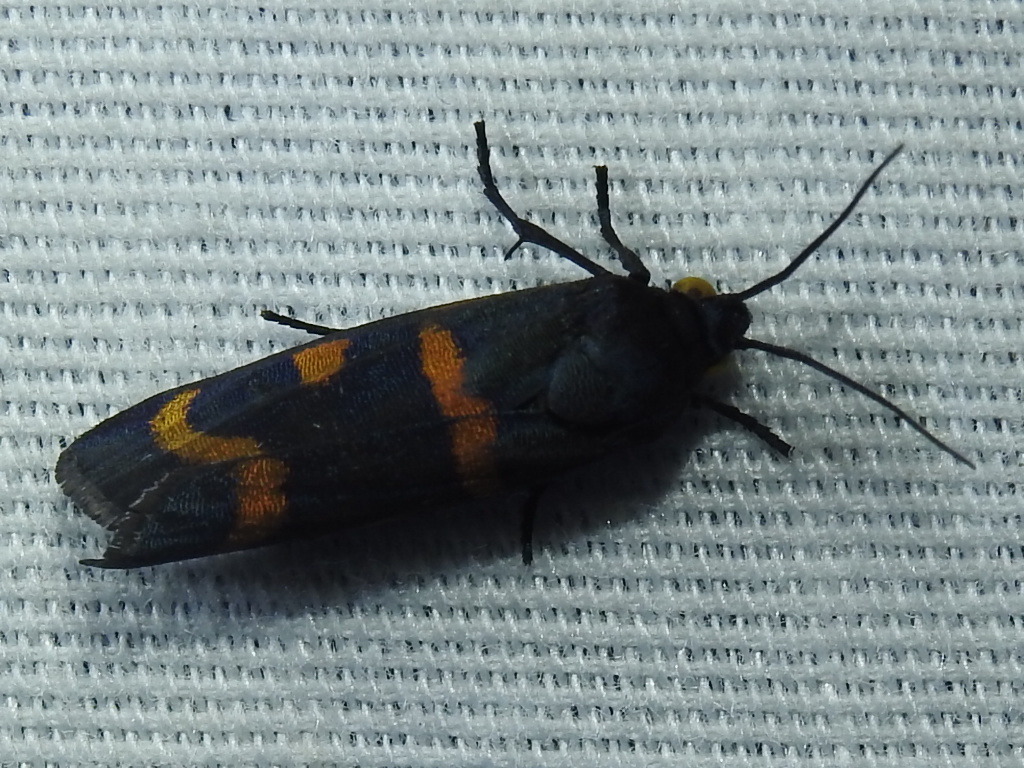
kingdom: Animalia
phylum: Arthropoda
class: Insecta
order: Lepidoptera
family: Noctuidae
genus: Cydosia
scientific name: Cydosia aurivitta
